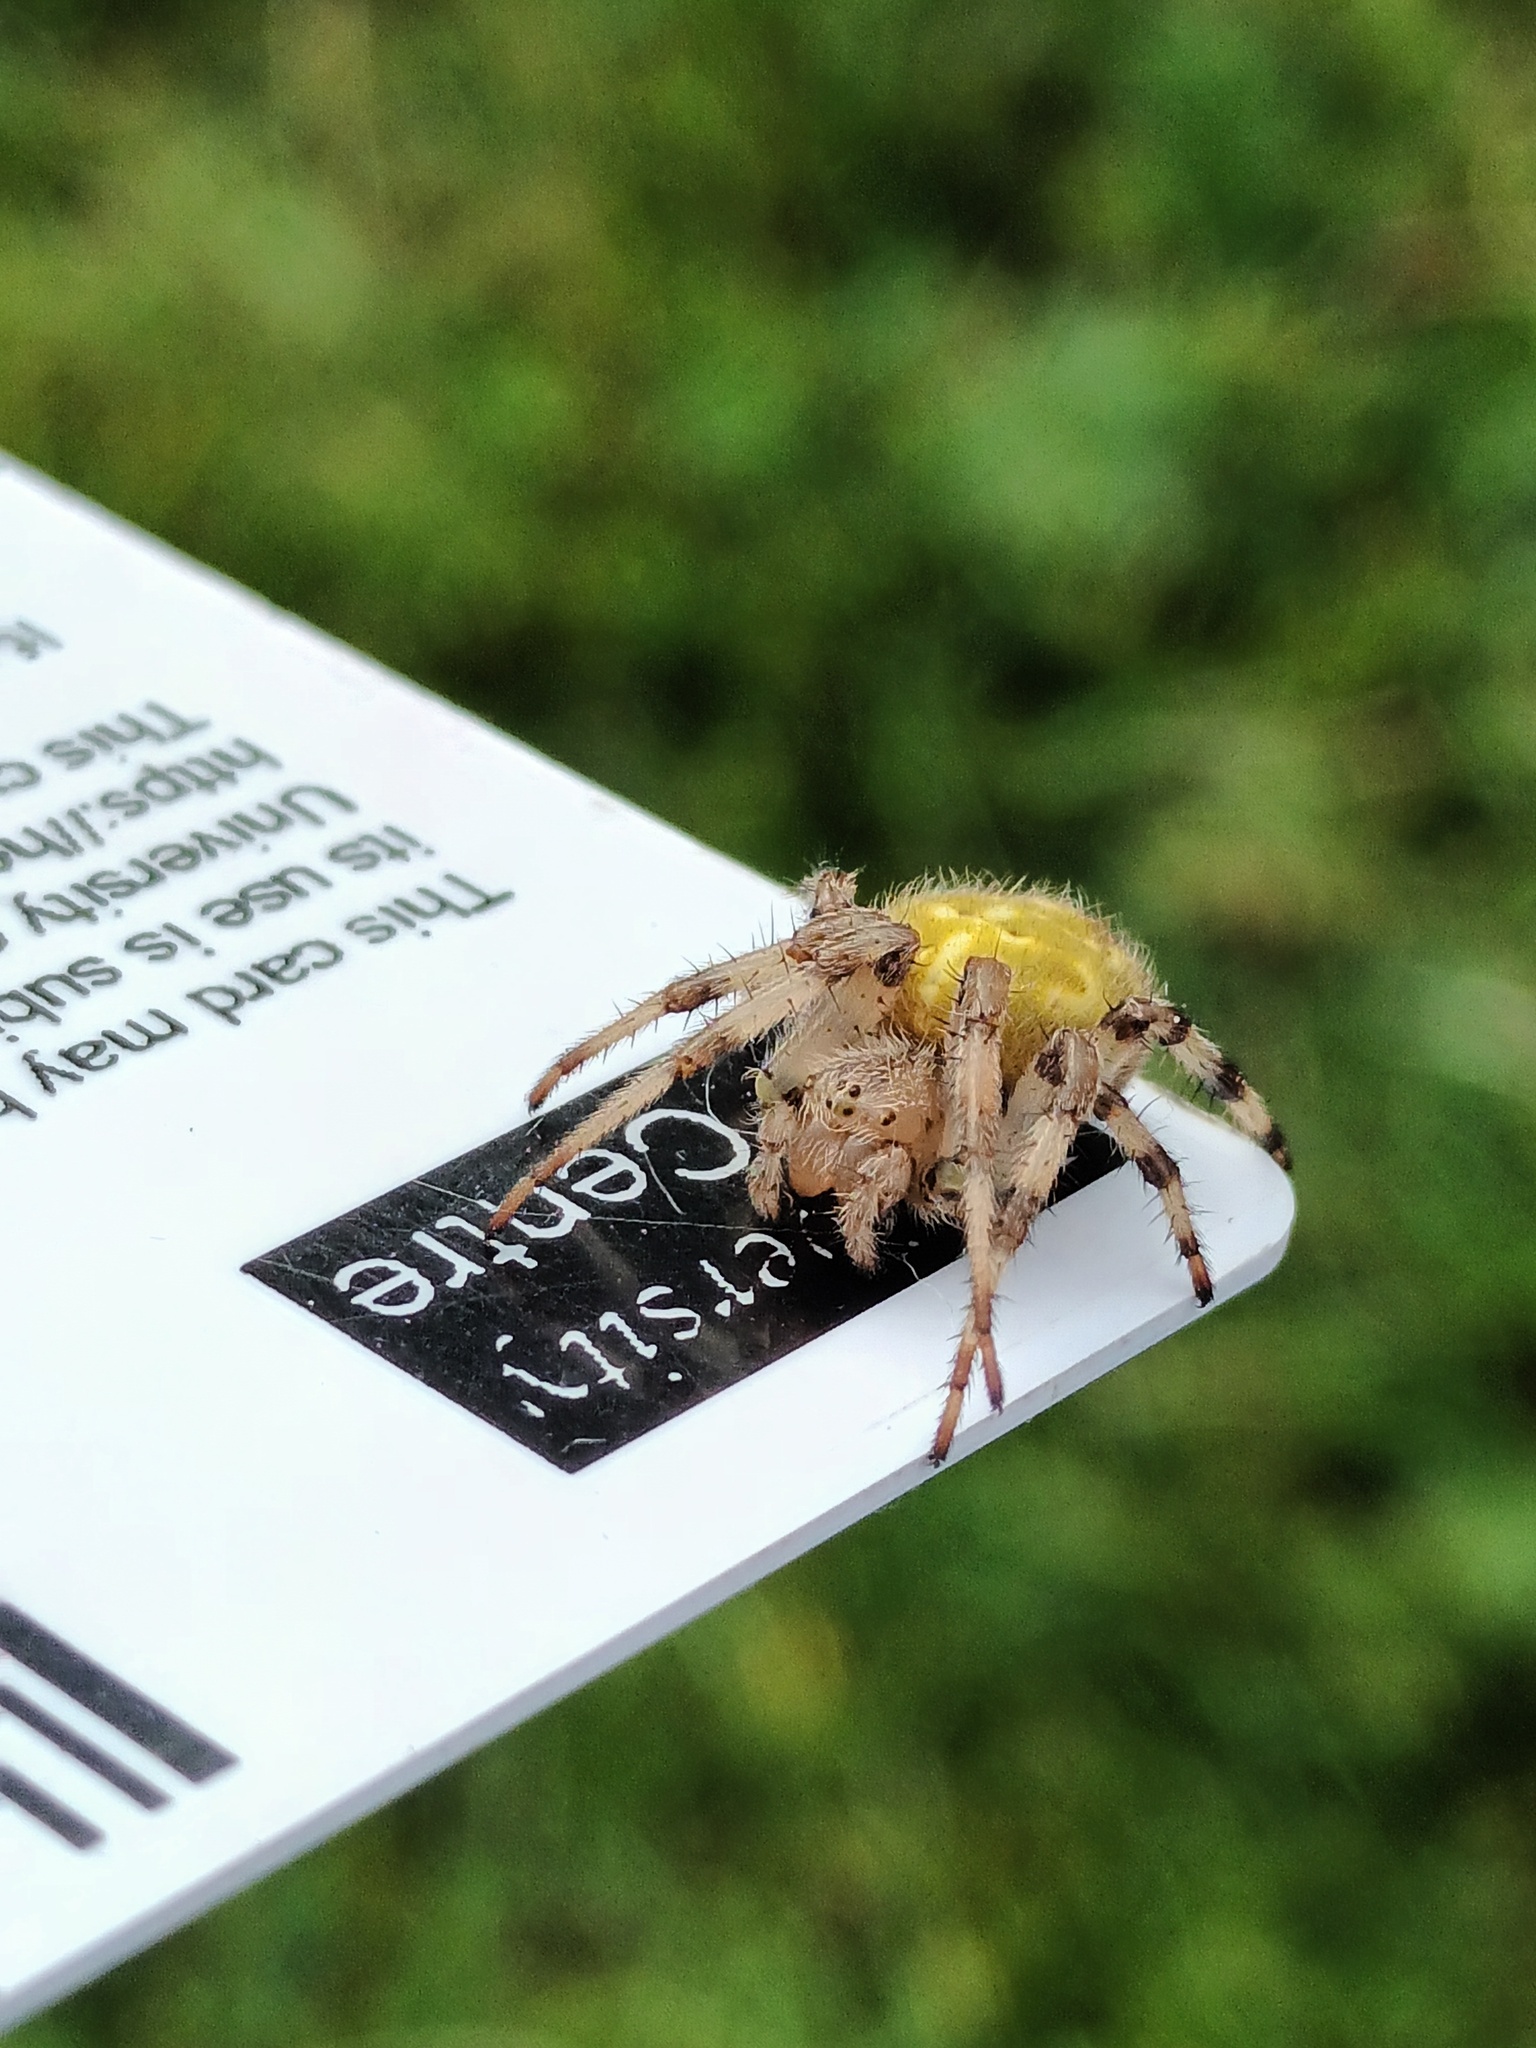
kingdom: Animalia
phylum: Arthropoda
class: Arachnida
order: Araneae
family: Araneidae
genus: Araneus
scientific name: Araneus quadratus
